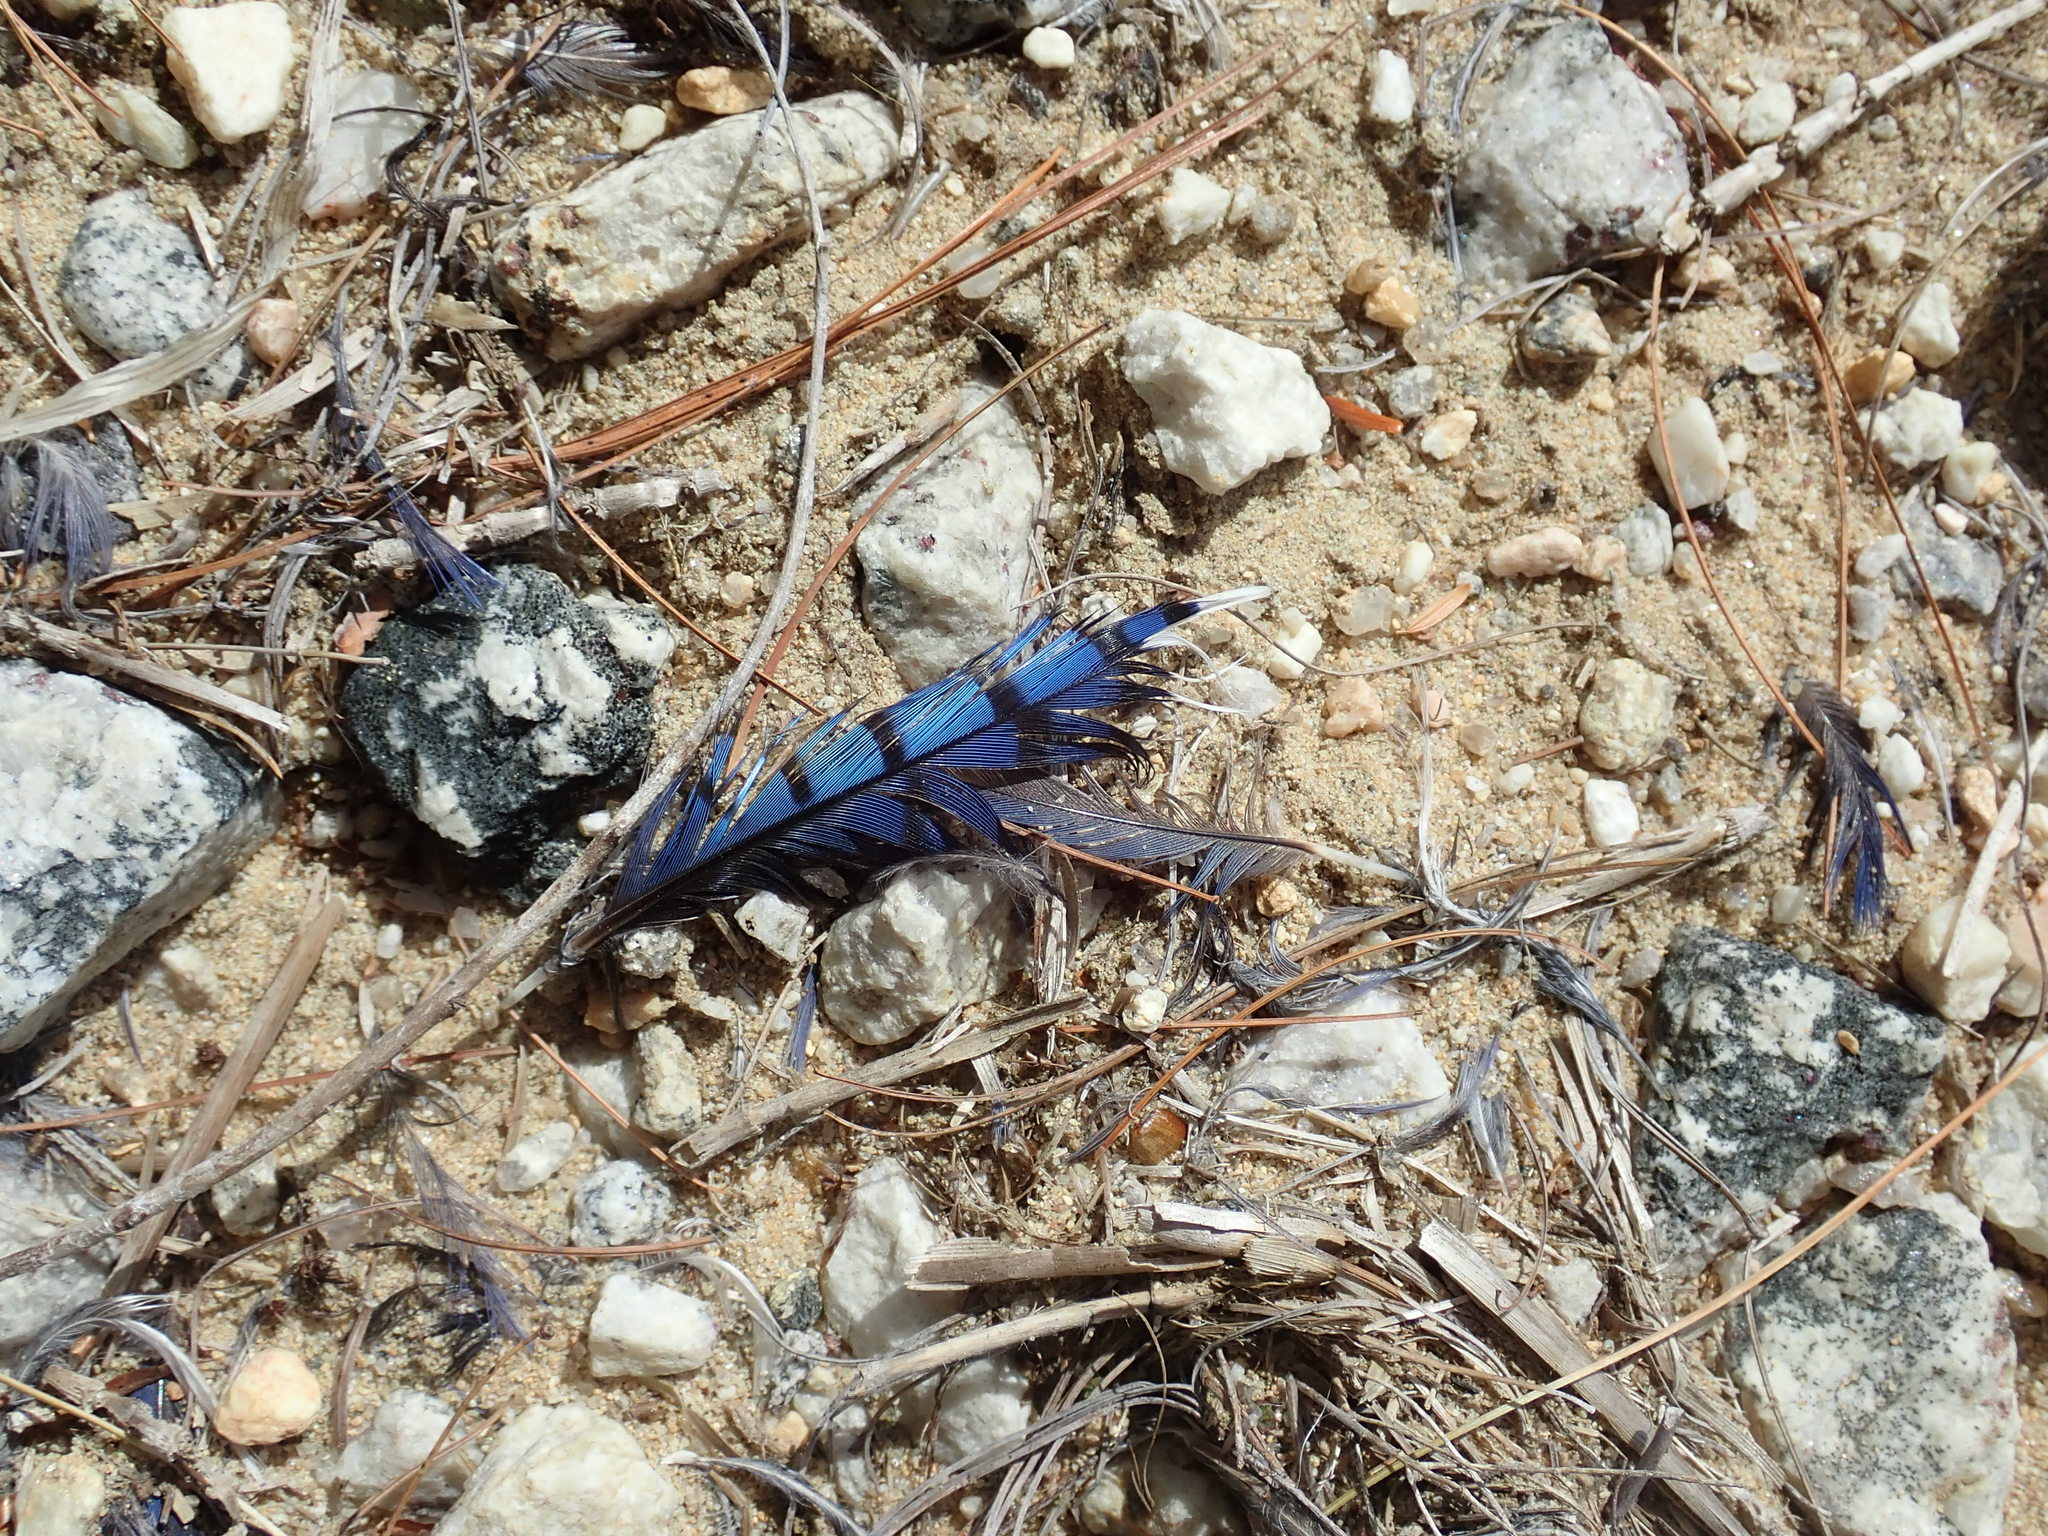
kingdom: Animalia
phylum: Chordata
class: Aves
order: Passeriformes
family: Corvidae
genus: Cyanocitta
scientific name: Cyanocitta cristata
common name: Blue jay
